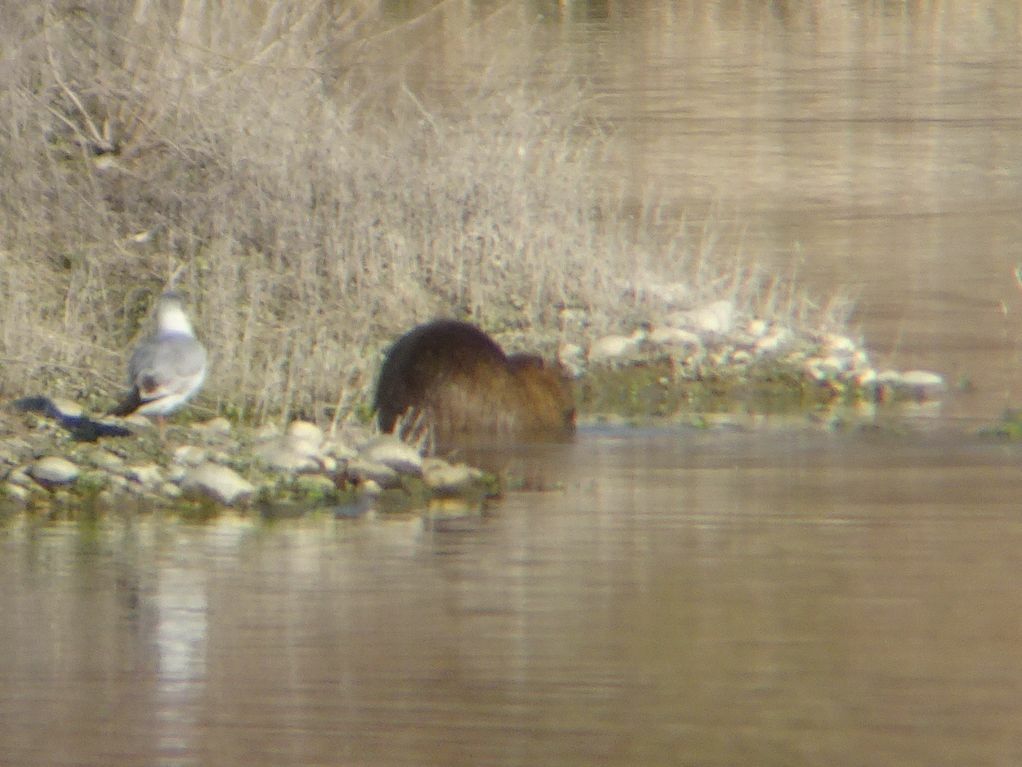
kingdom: Animalia
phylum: Chordata
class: Mammalia
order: Rodentia
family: Myocastoridae
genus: Myocastor
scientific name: Myocastor coypus
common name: Coypu
